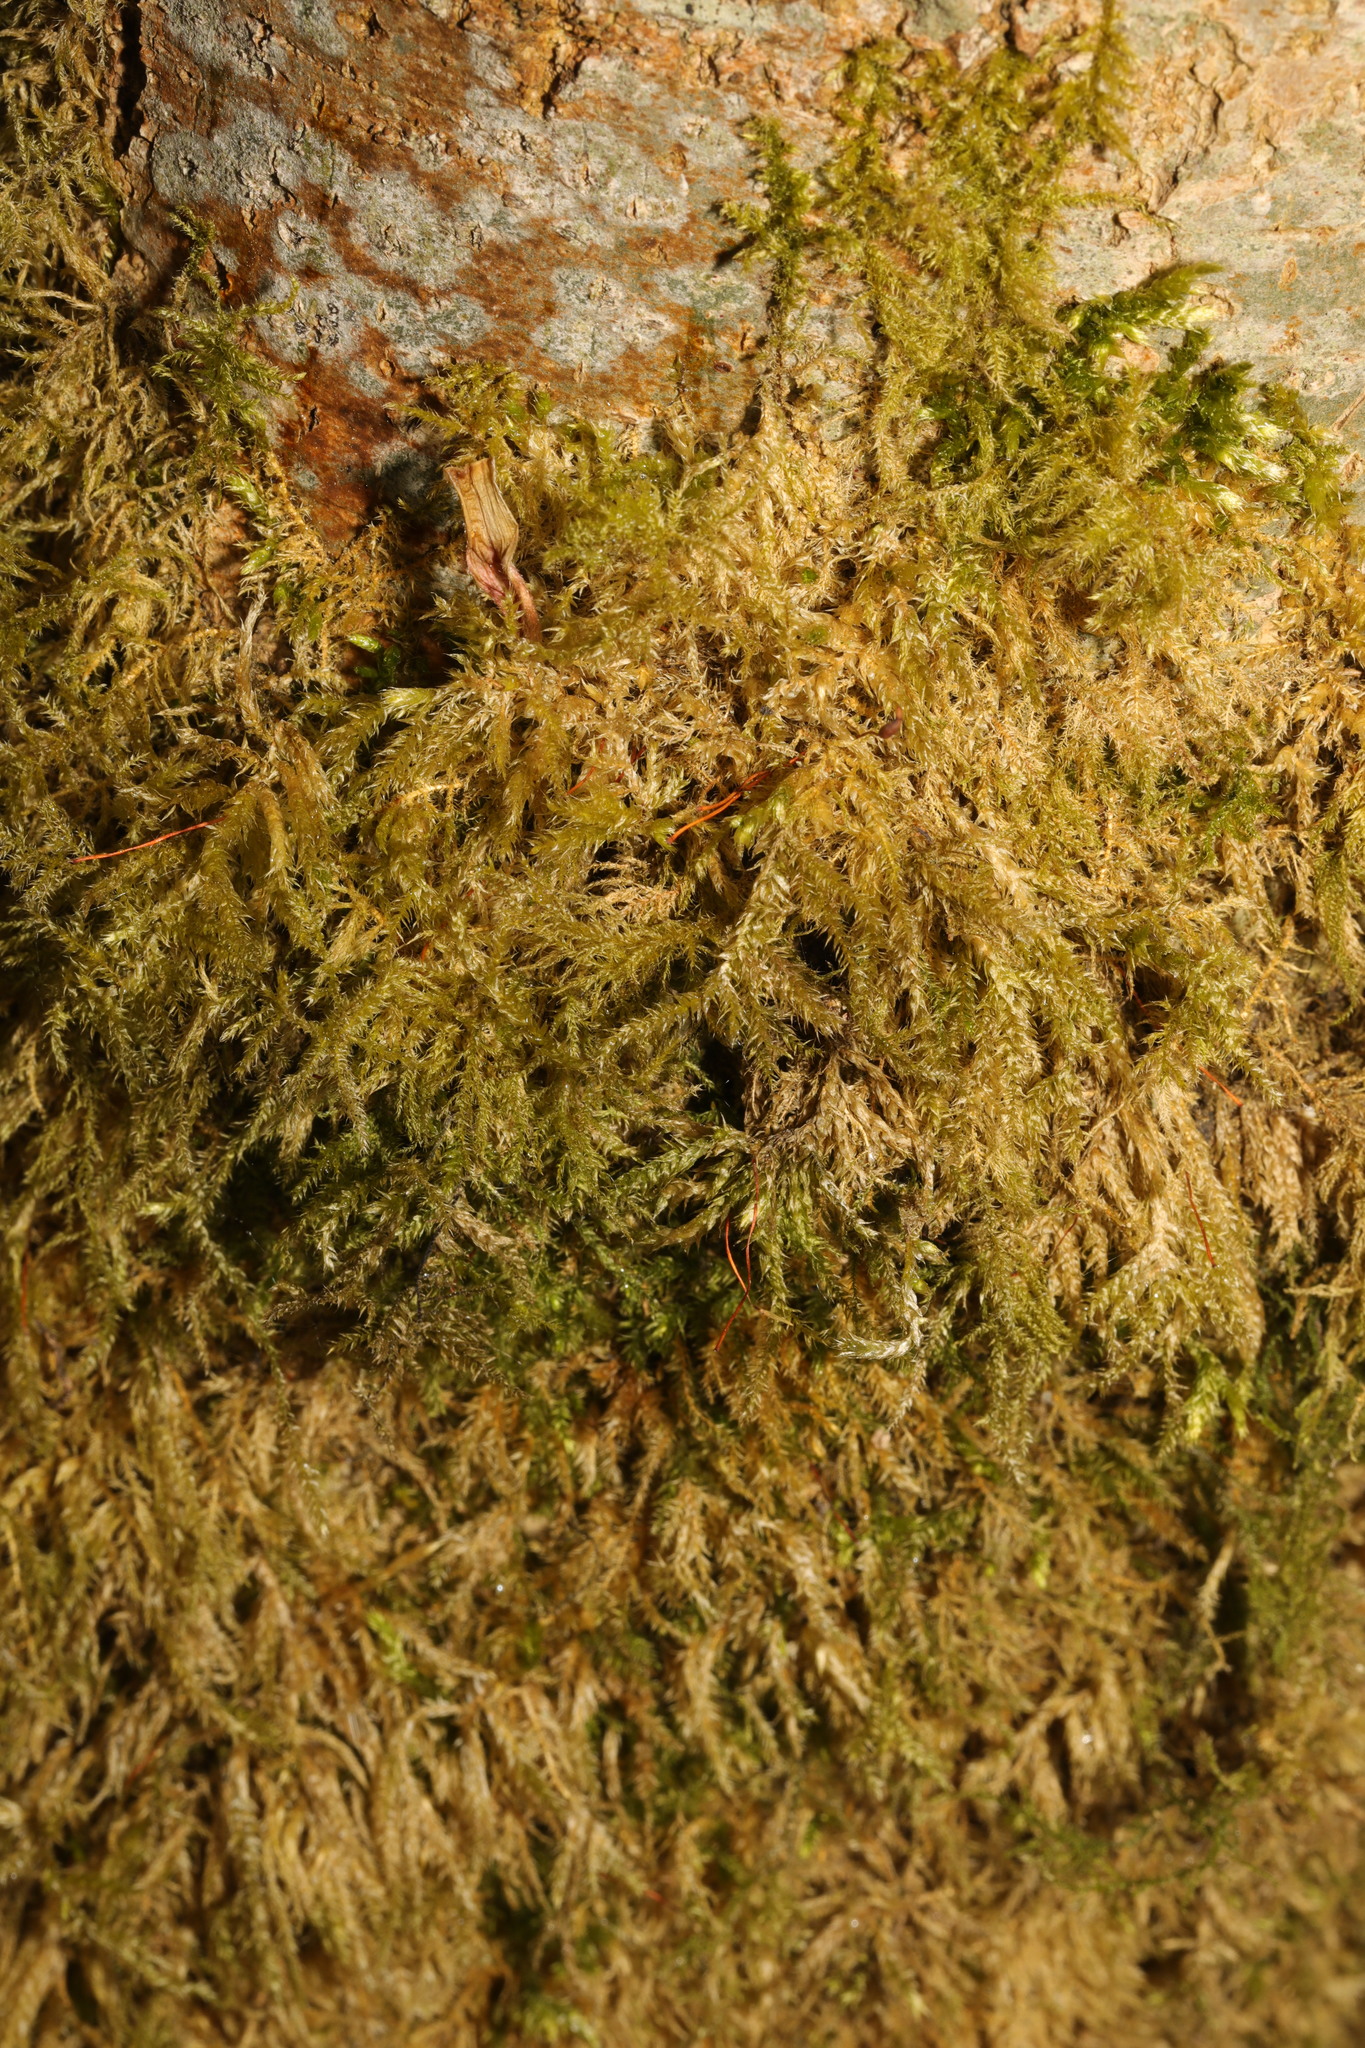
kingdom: Plantae
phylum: Bryophyta
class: Bryopsida
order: Hypnales
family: Brachytheciaceae
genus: Kindbergia
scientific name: Kindbergia praelonga
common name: Slender beaked moss
